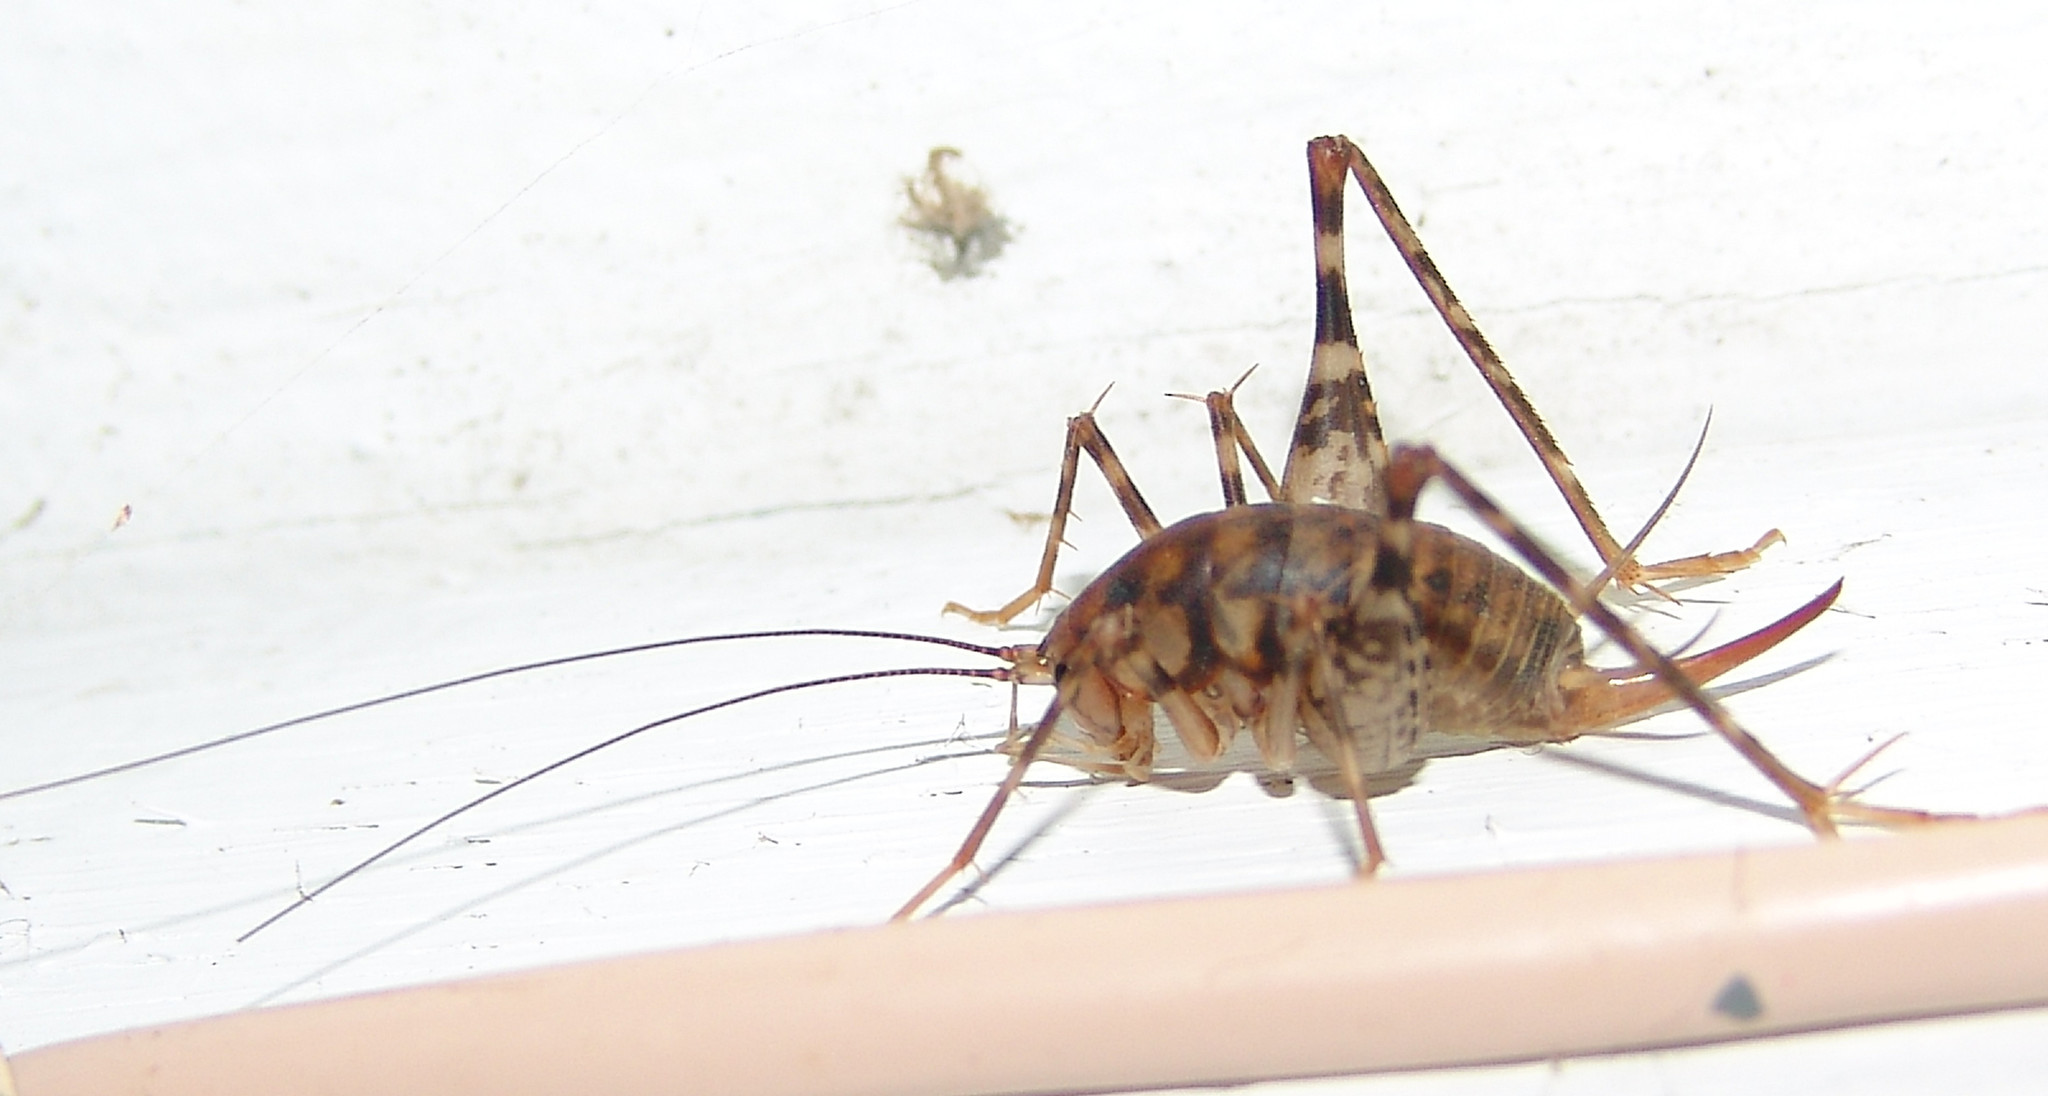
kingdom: Animalia
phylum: Arthropoda
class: Insecta
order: Orthoptera
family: Rhaphidophoridae
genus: Tachycines
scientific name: Tachycines asynamorus
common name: Greenhouse camel cricket
